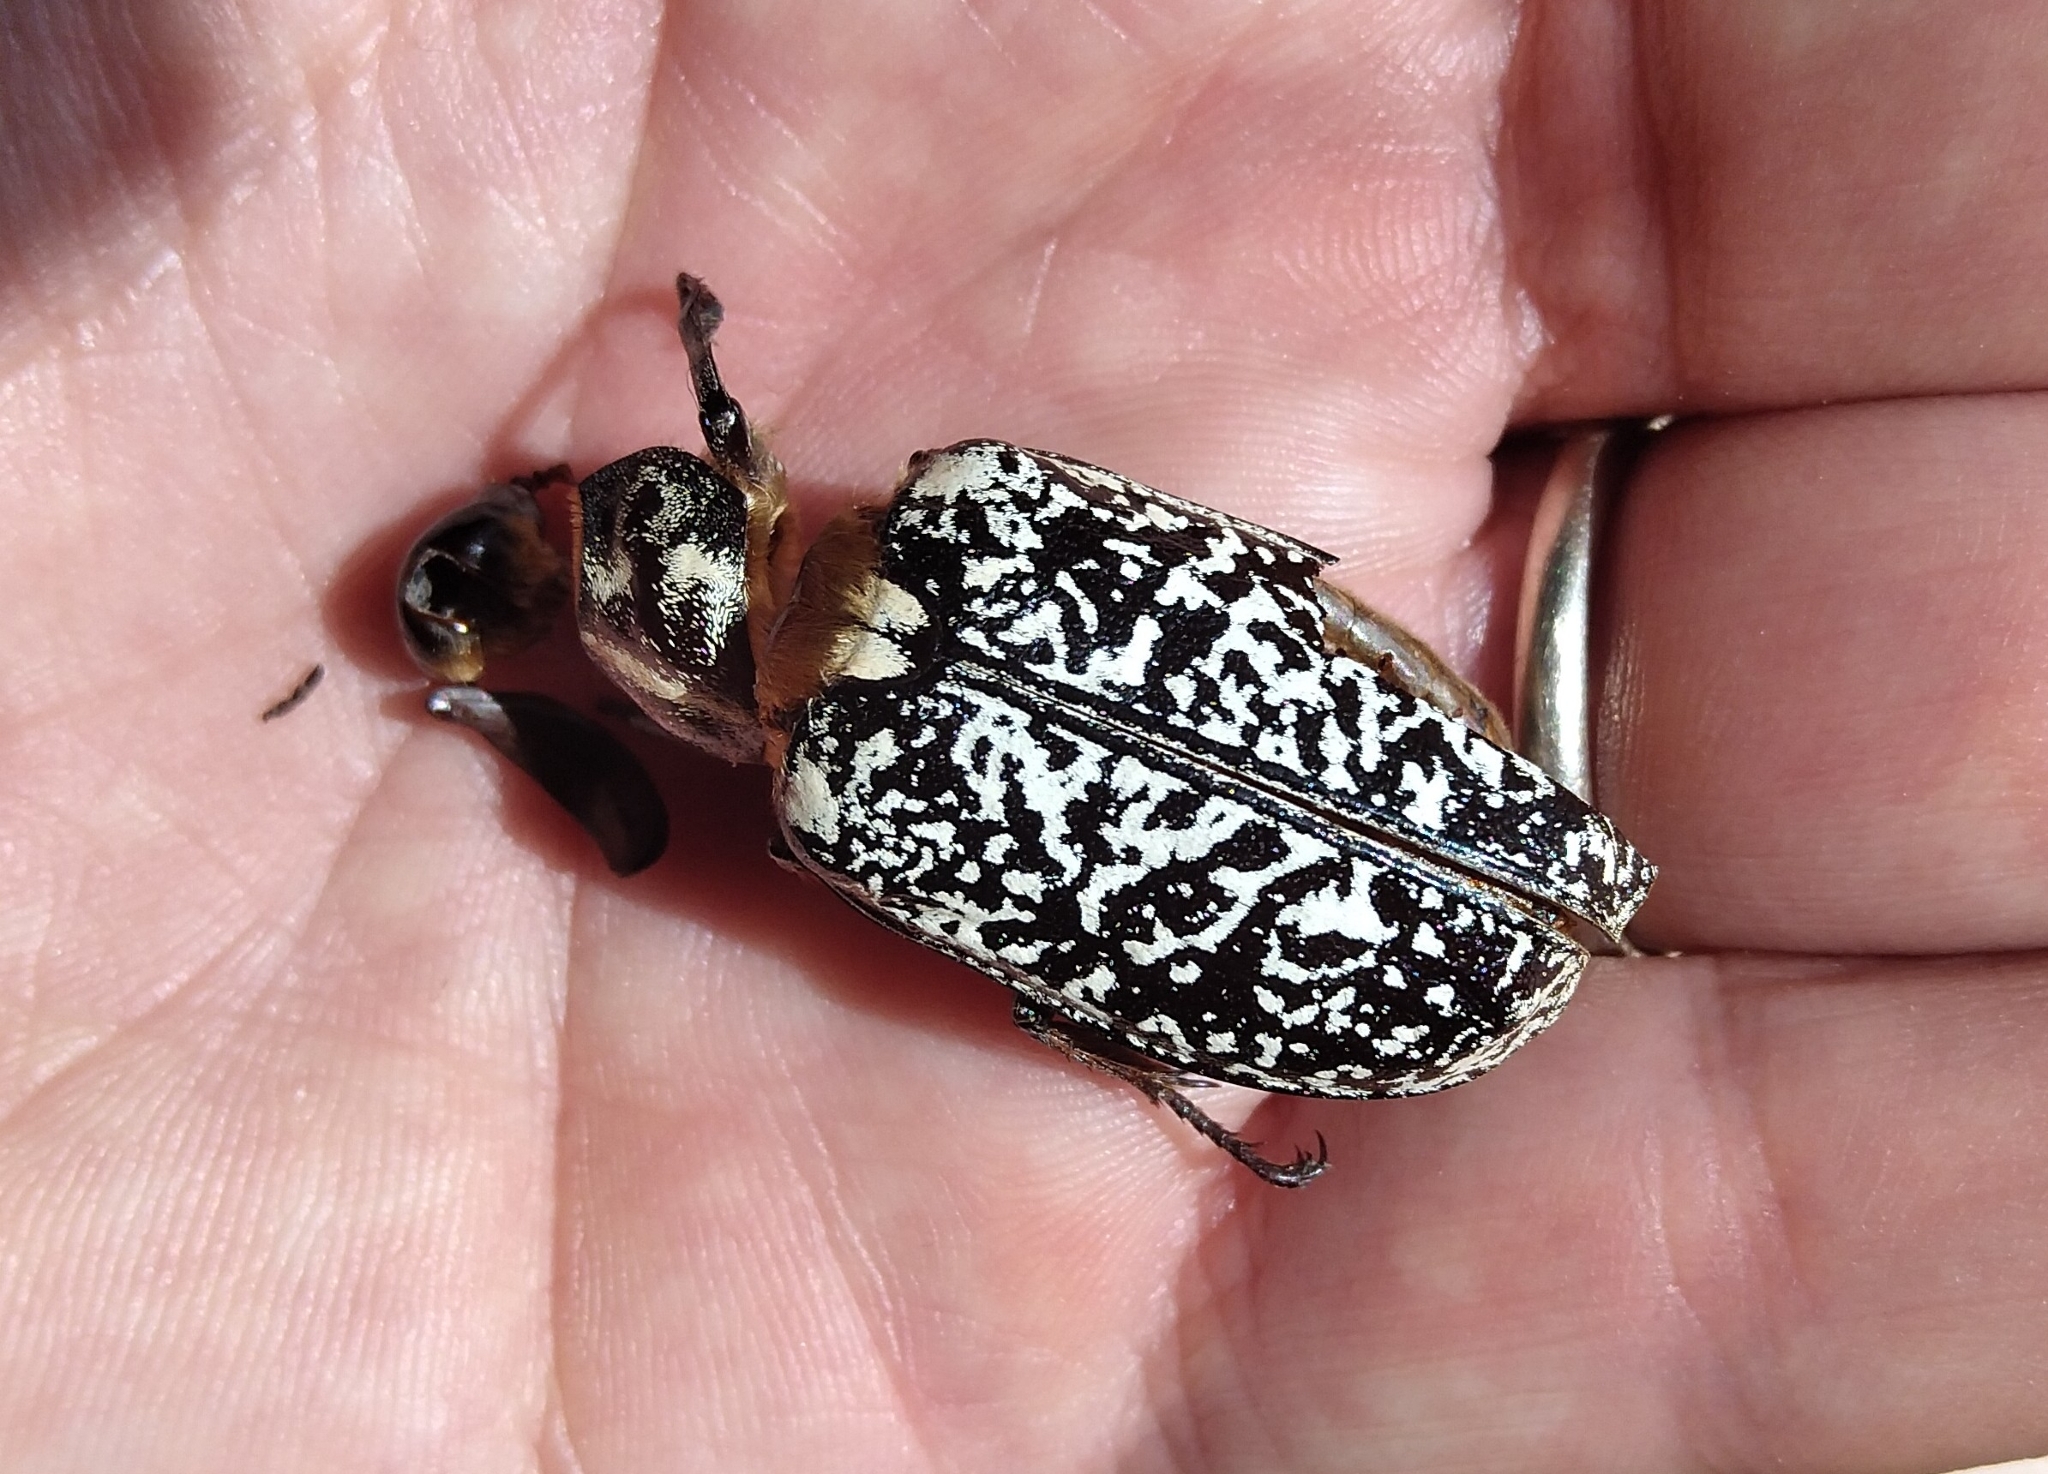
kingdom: Animalia
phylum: Arthropoda
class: Insecta
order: Coleoptera
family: Scarabaeidae
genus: Polyphylla
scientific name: Polyphylla fullo
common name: Pine chafer
